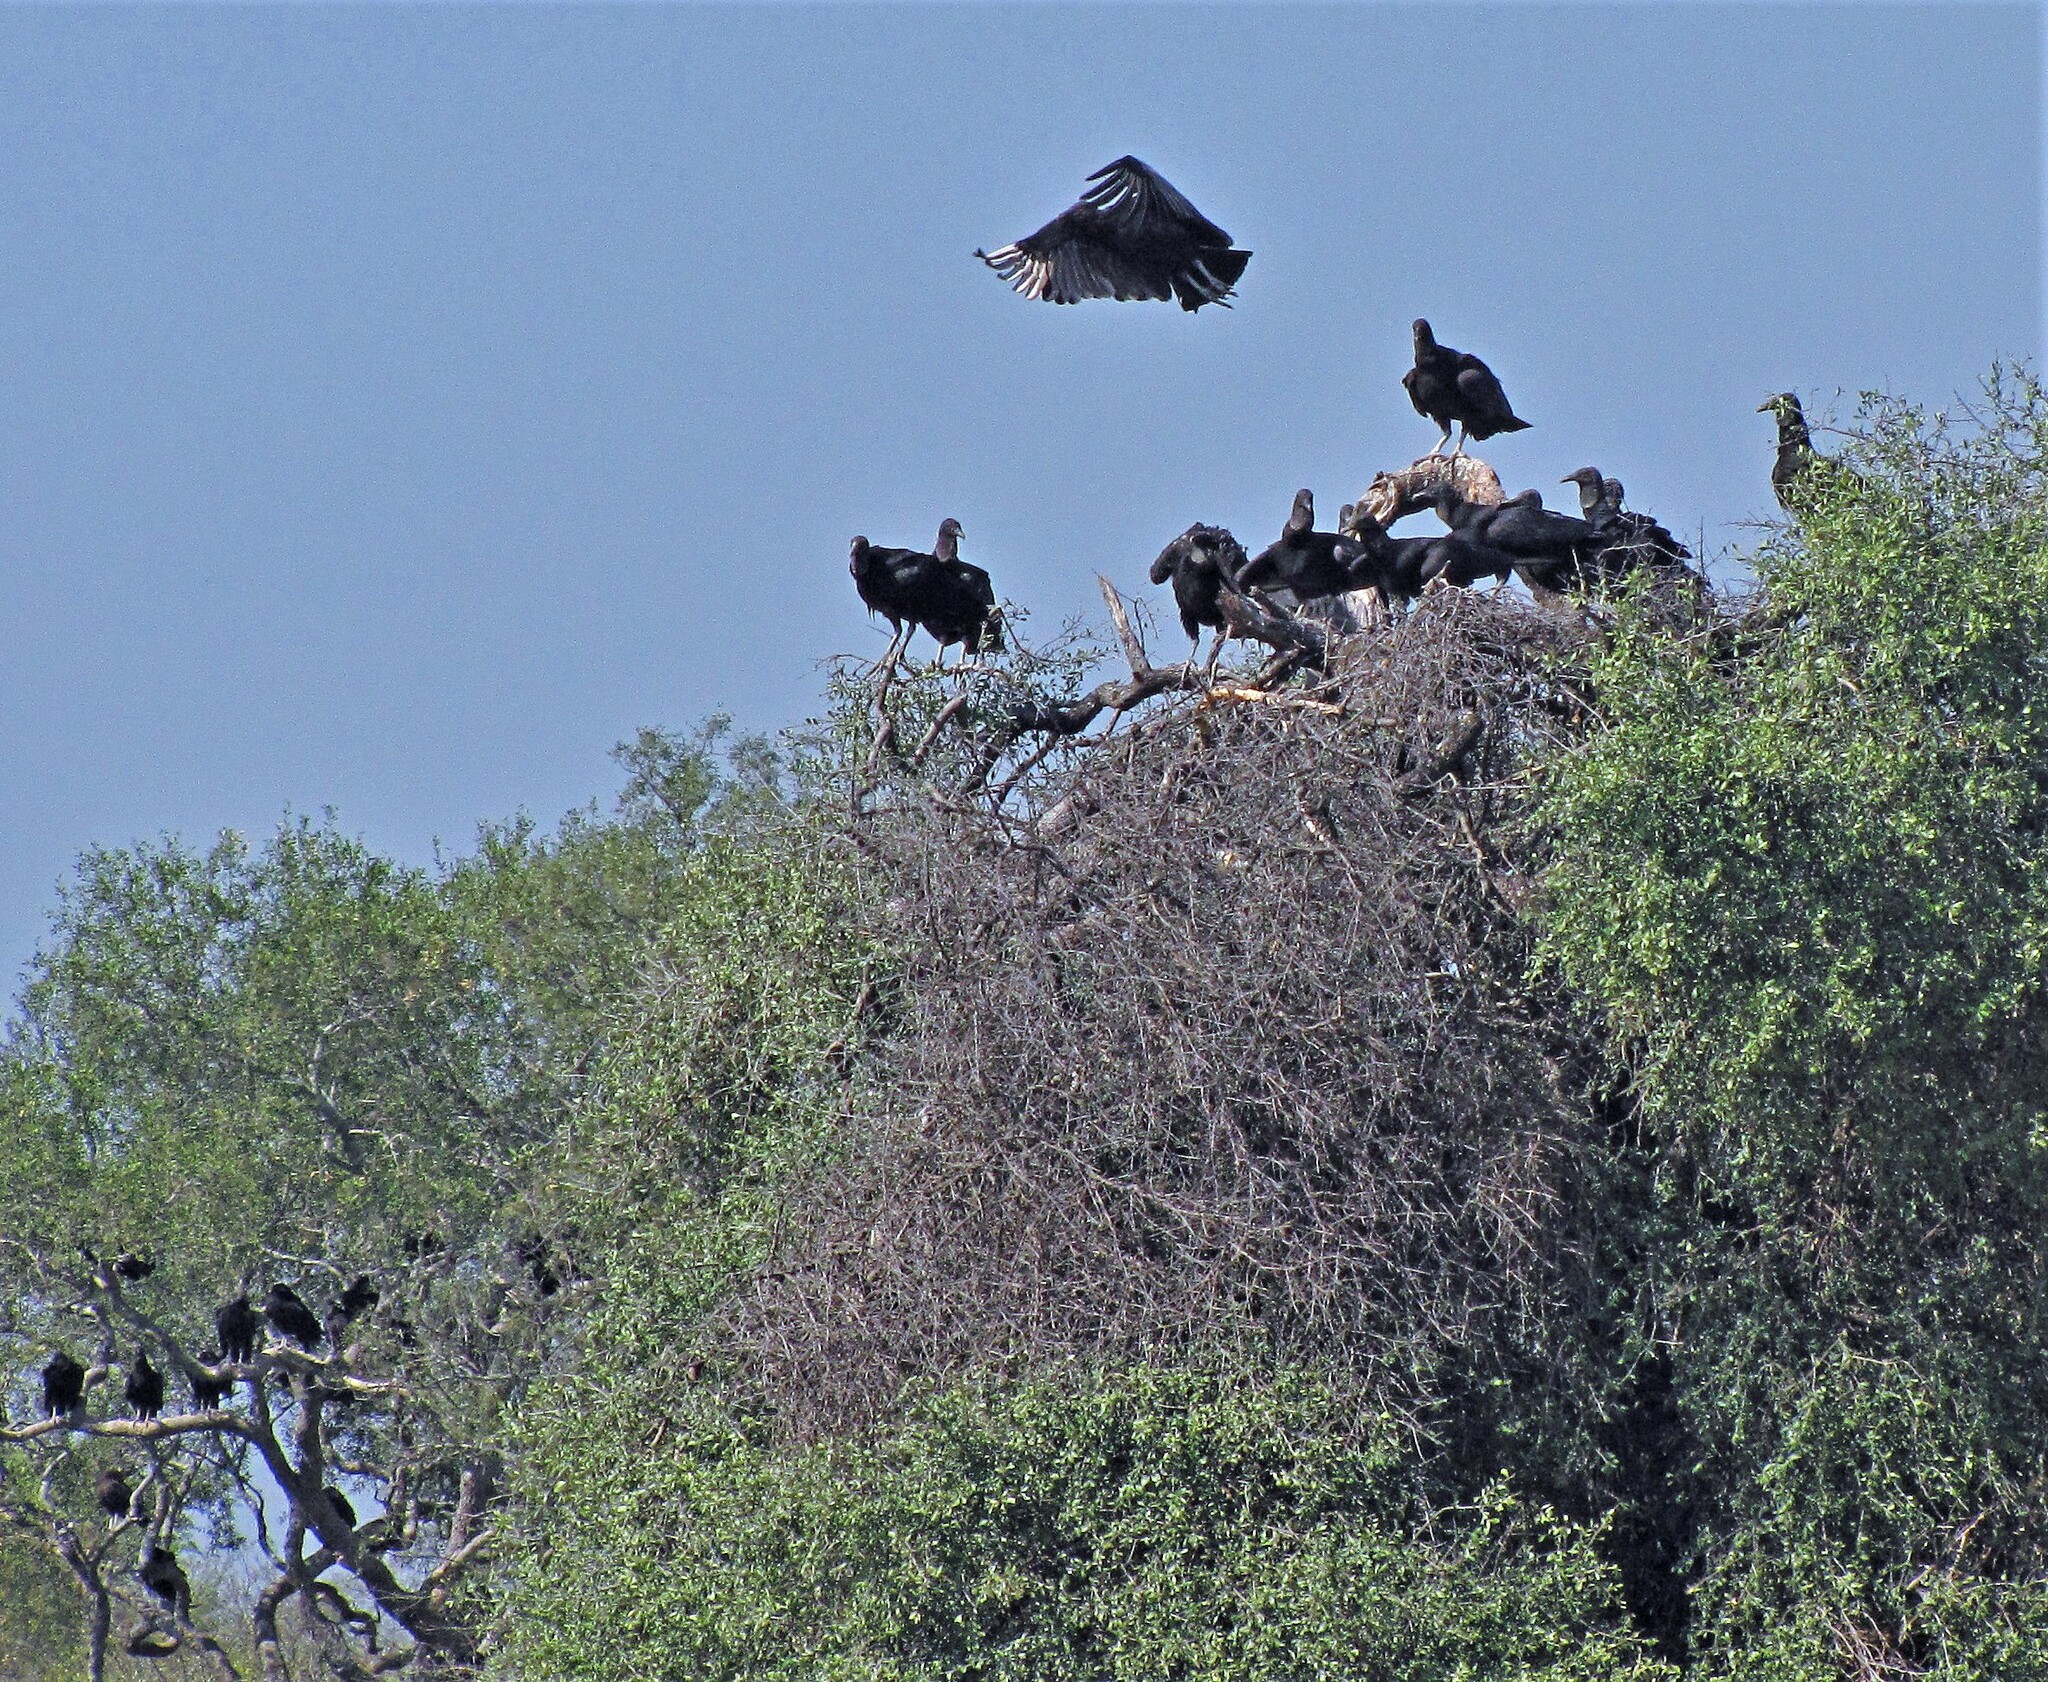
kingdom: Animalia
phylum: Chordata
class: Aves
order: Accipitriformes
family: Cathartidae
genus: Coragyps
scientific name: Coragyps atratus
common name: Black vulture
